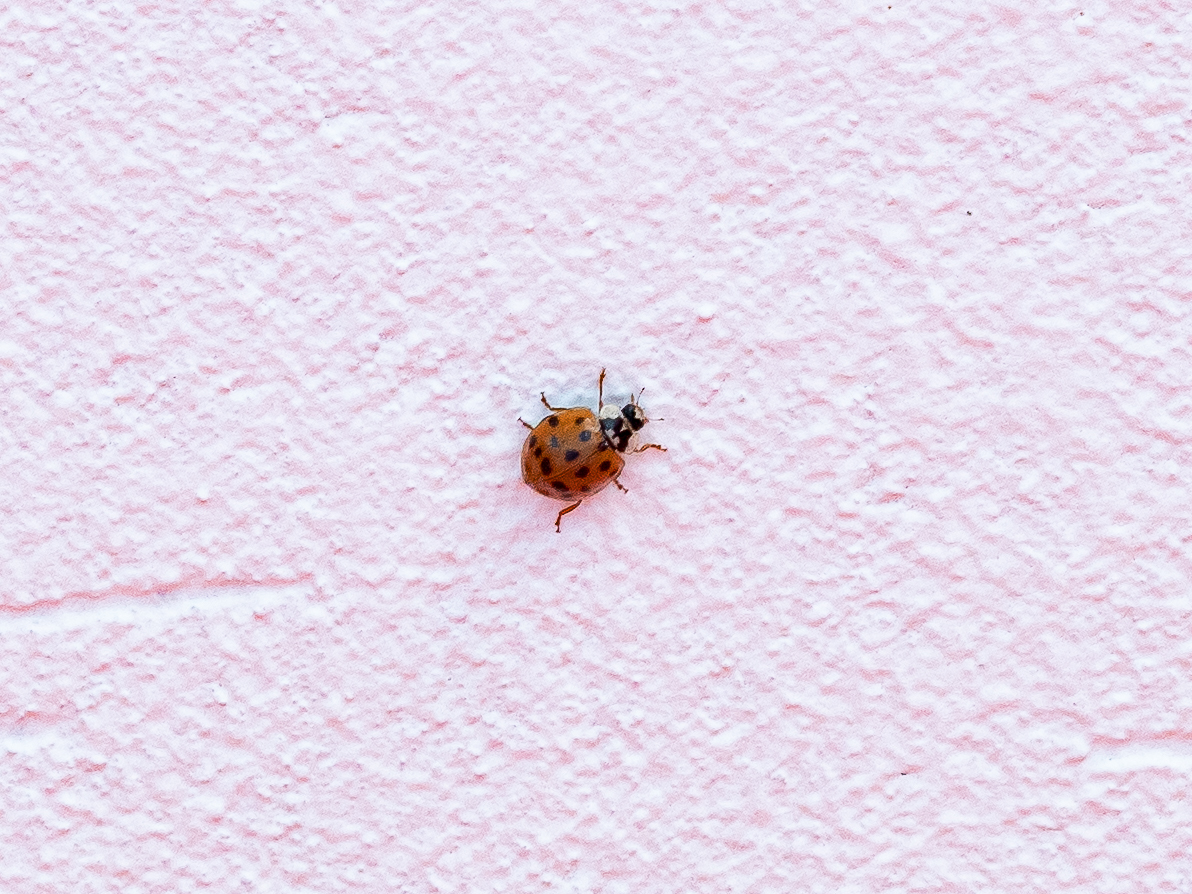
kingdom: Animalia
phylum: Arthropoda
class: Insecta
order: Coleoptera
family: Coccinellidae
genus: Harmonia
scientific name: Harmonia axyridis
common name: Harlequin ladybird
